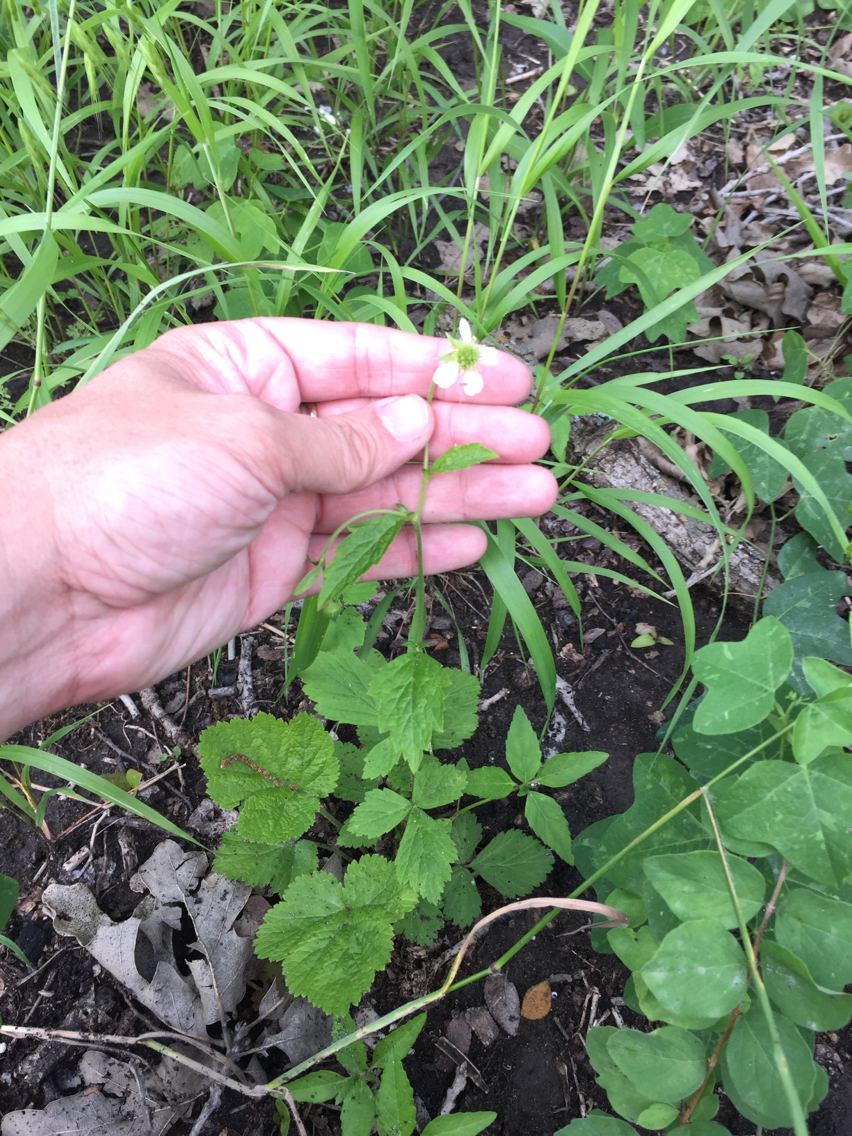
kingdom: Plantae
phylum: Tracheophyta
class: Magnoliopsida
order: Rosales
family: Rosaceae
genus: Geum
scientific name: Geum canadense
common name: White avens
